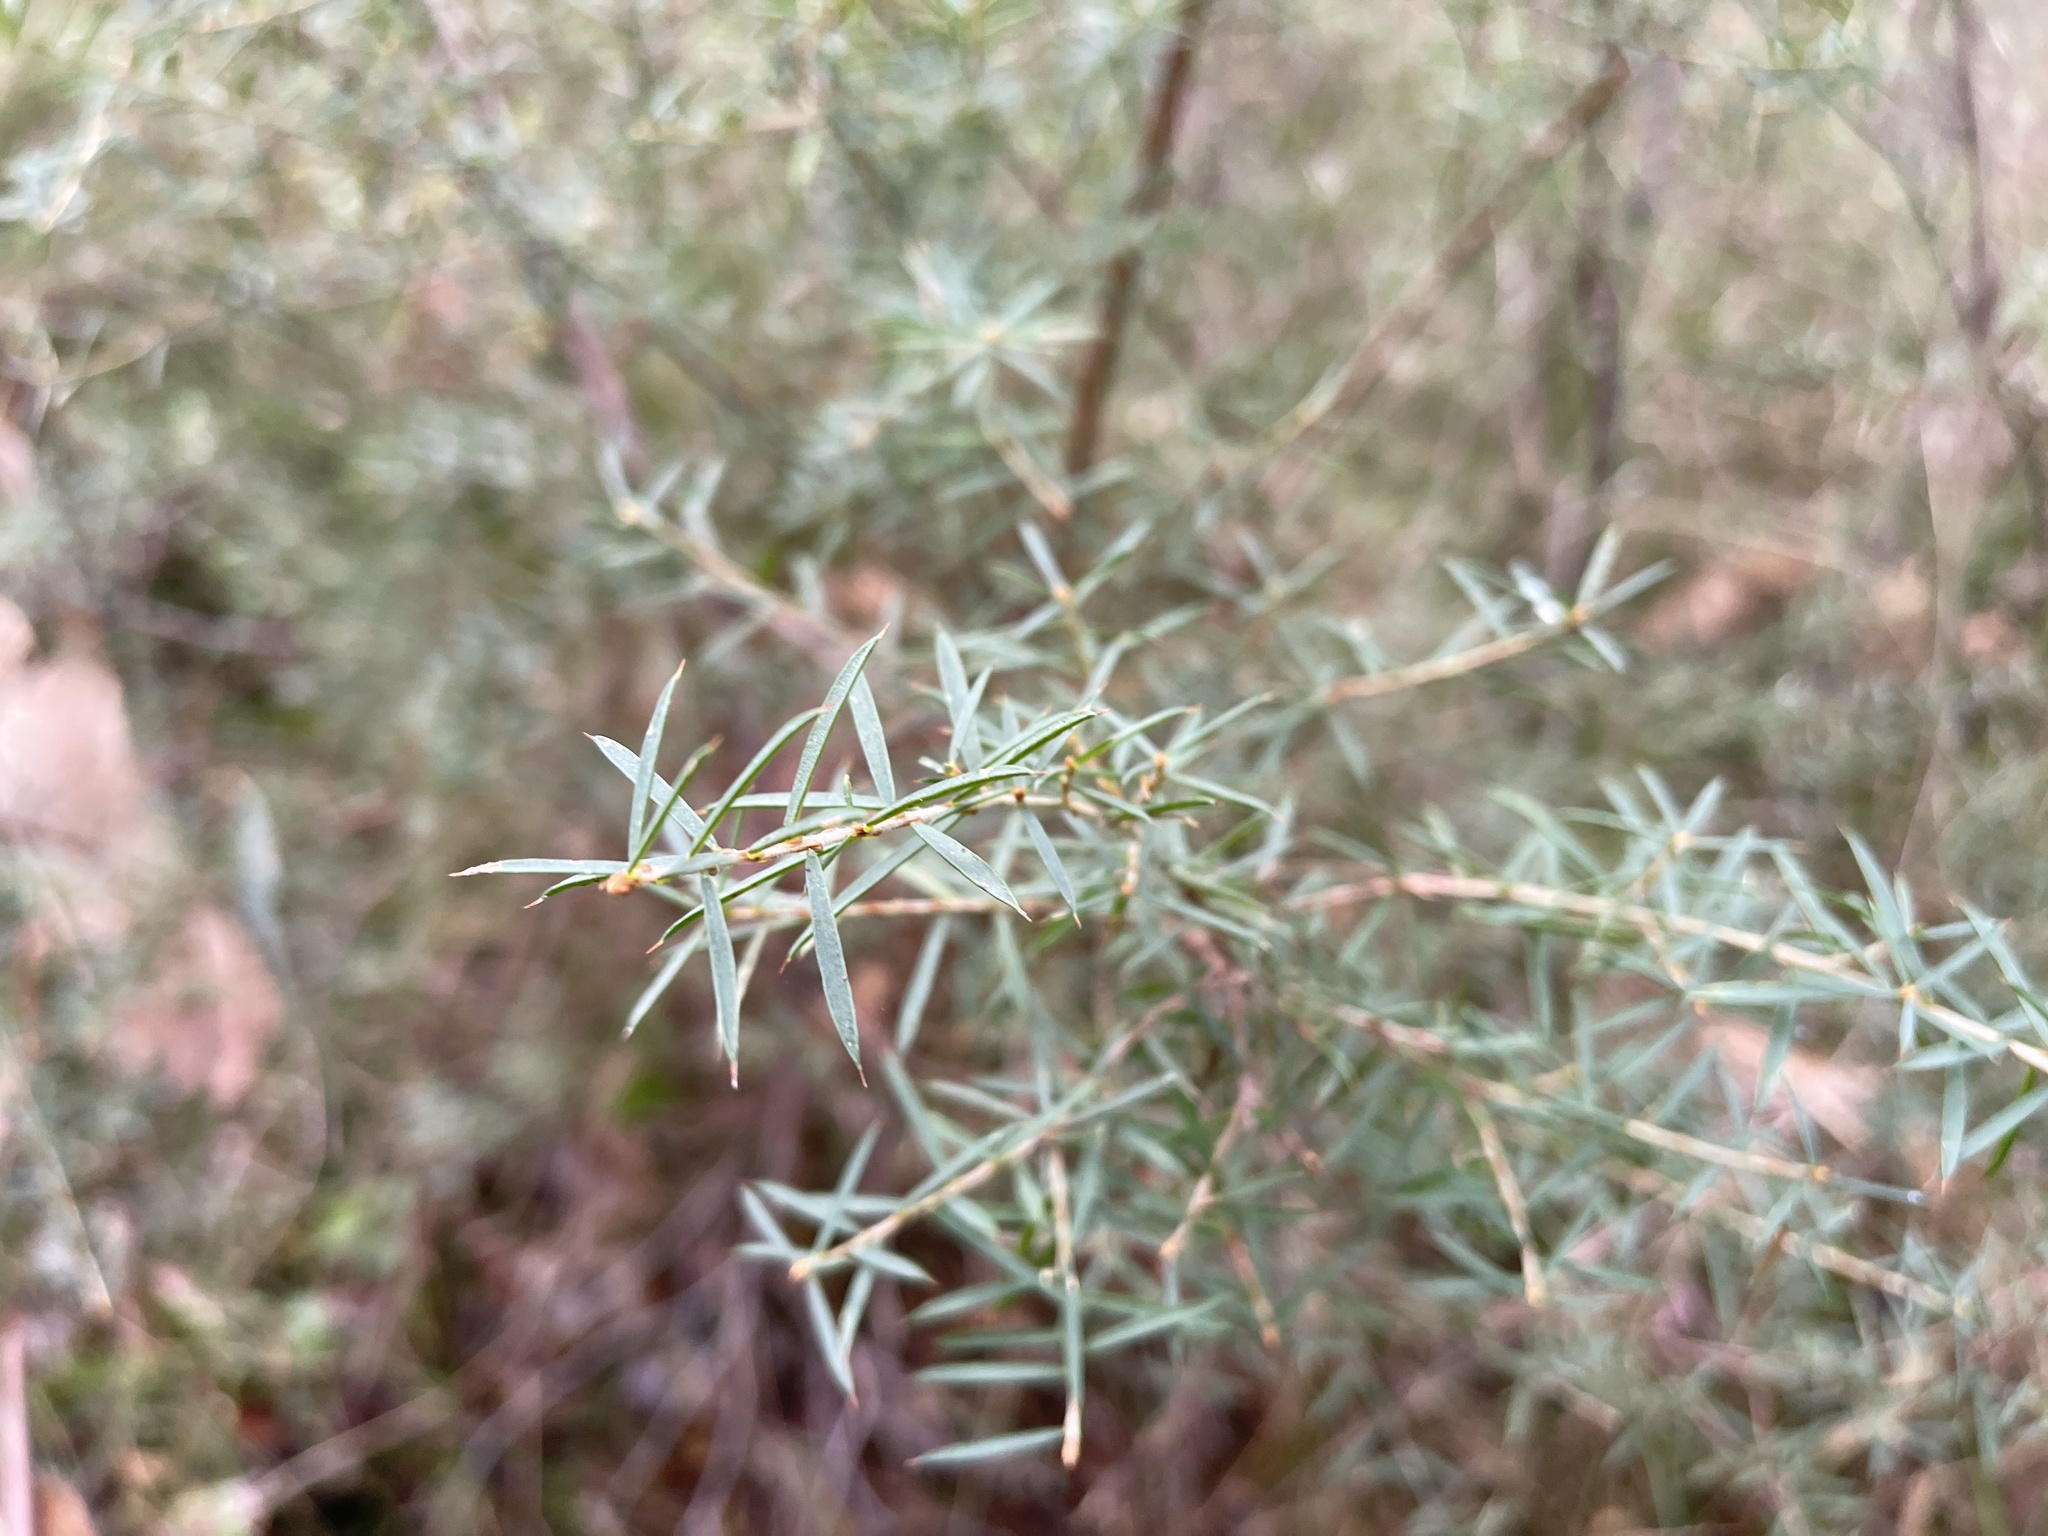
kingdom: Plantae
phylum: Tracheophyta
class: Magnoliopsida
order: Fabales
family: Fabaceae
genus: Acacia
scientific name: Acacia oxycedrus
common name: Spike wattle
